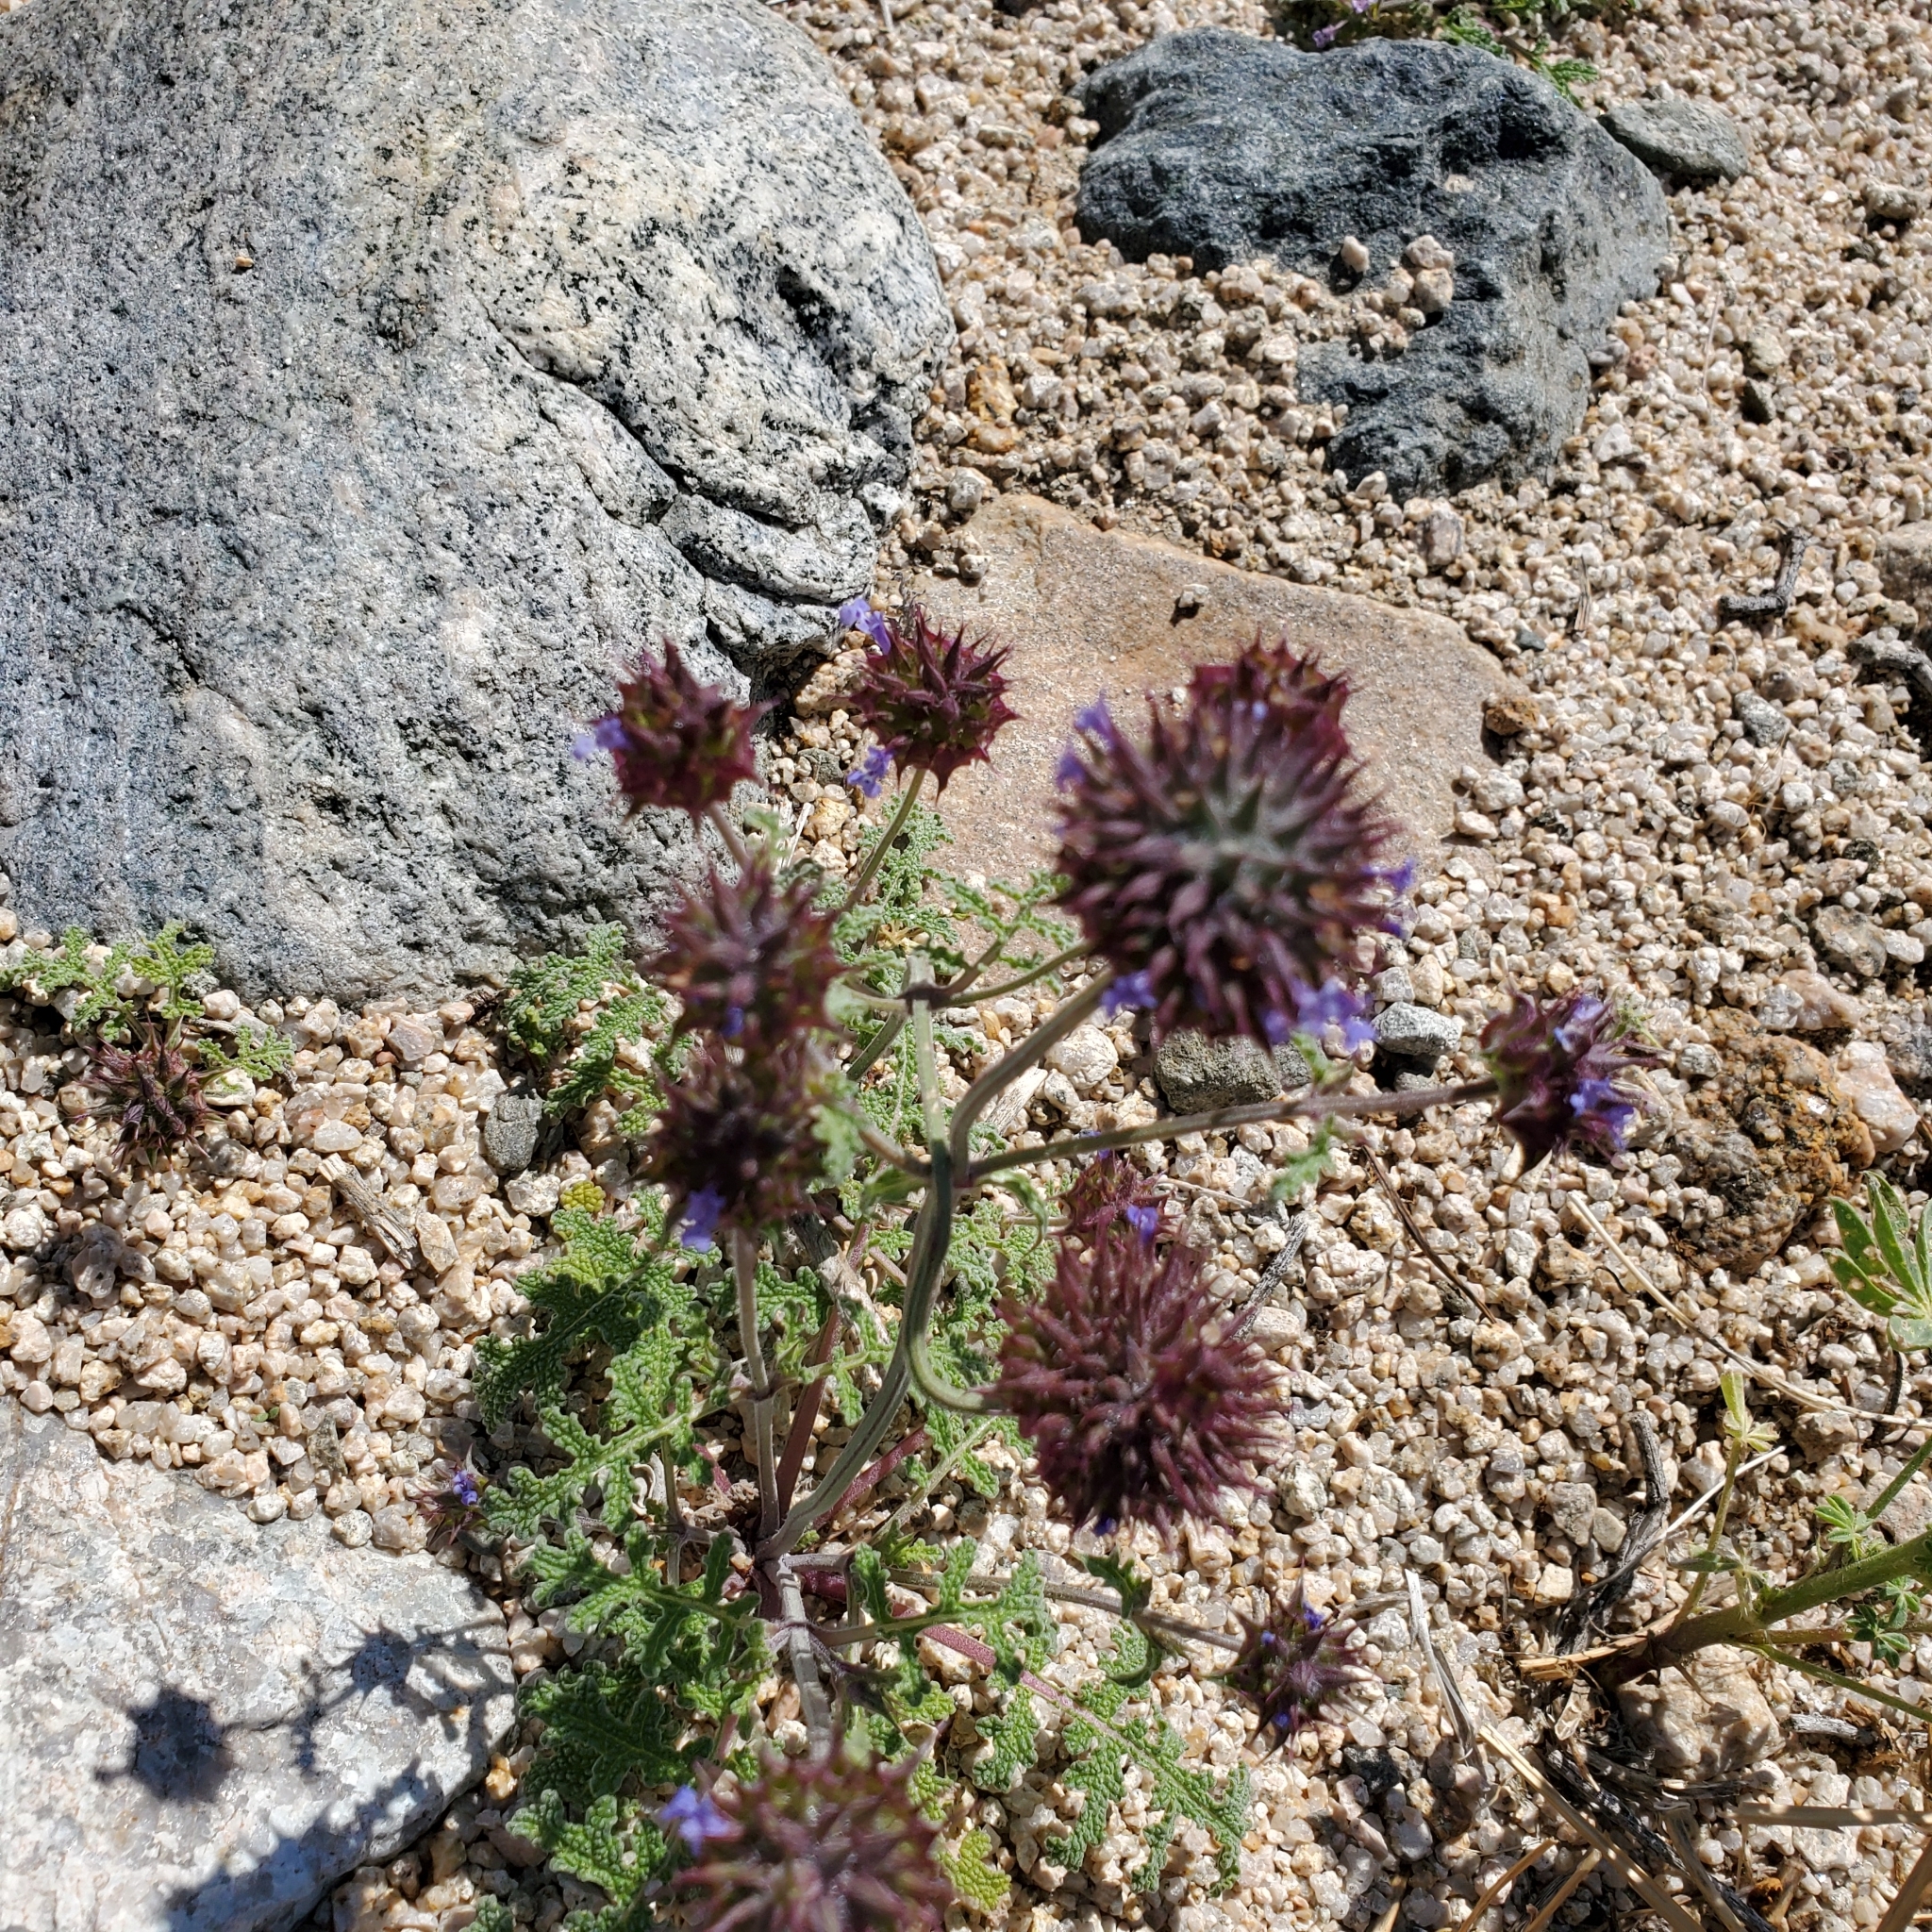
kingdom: Plantae
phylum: Tracheophyta
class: Magnoliopsida
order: Lamiales
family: Lamiaceae
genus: Salvia
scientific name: Salvia columbariae
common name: Chia
